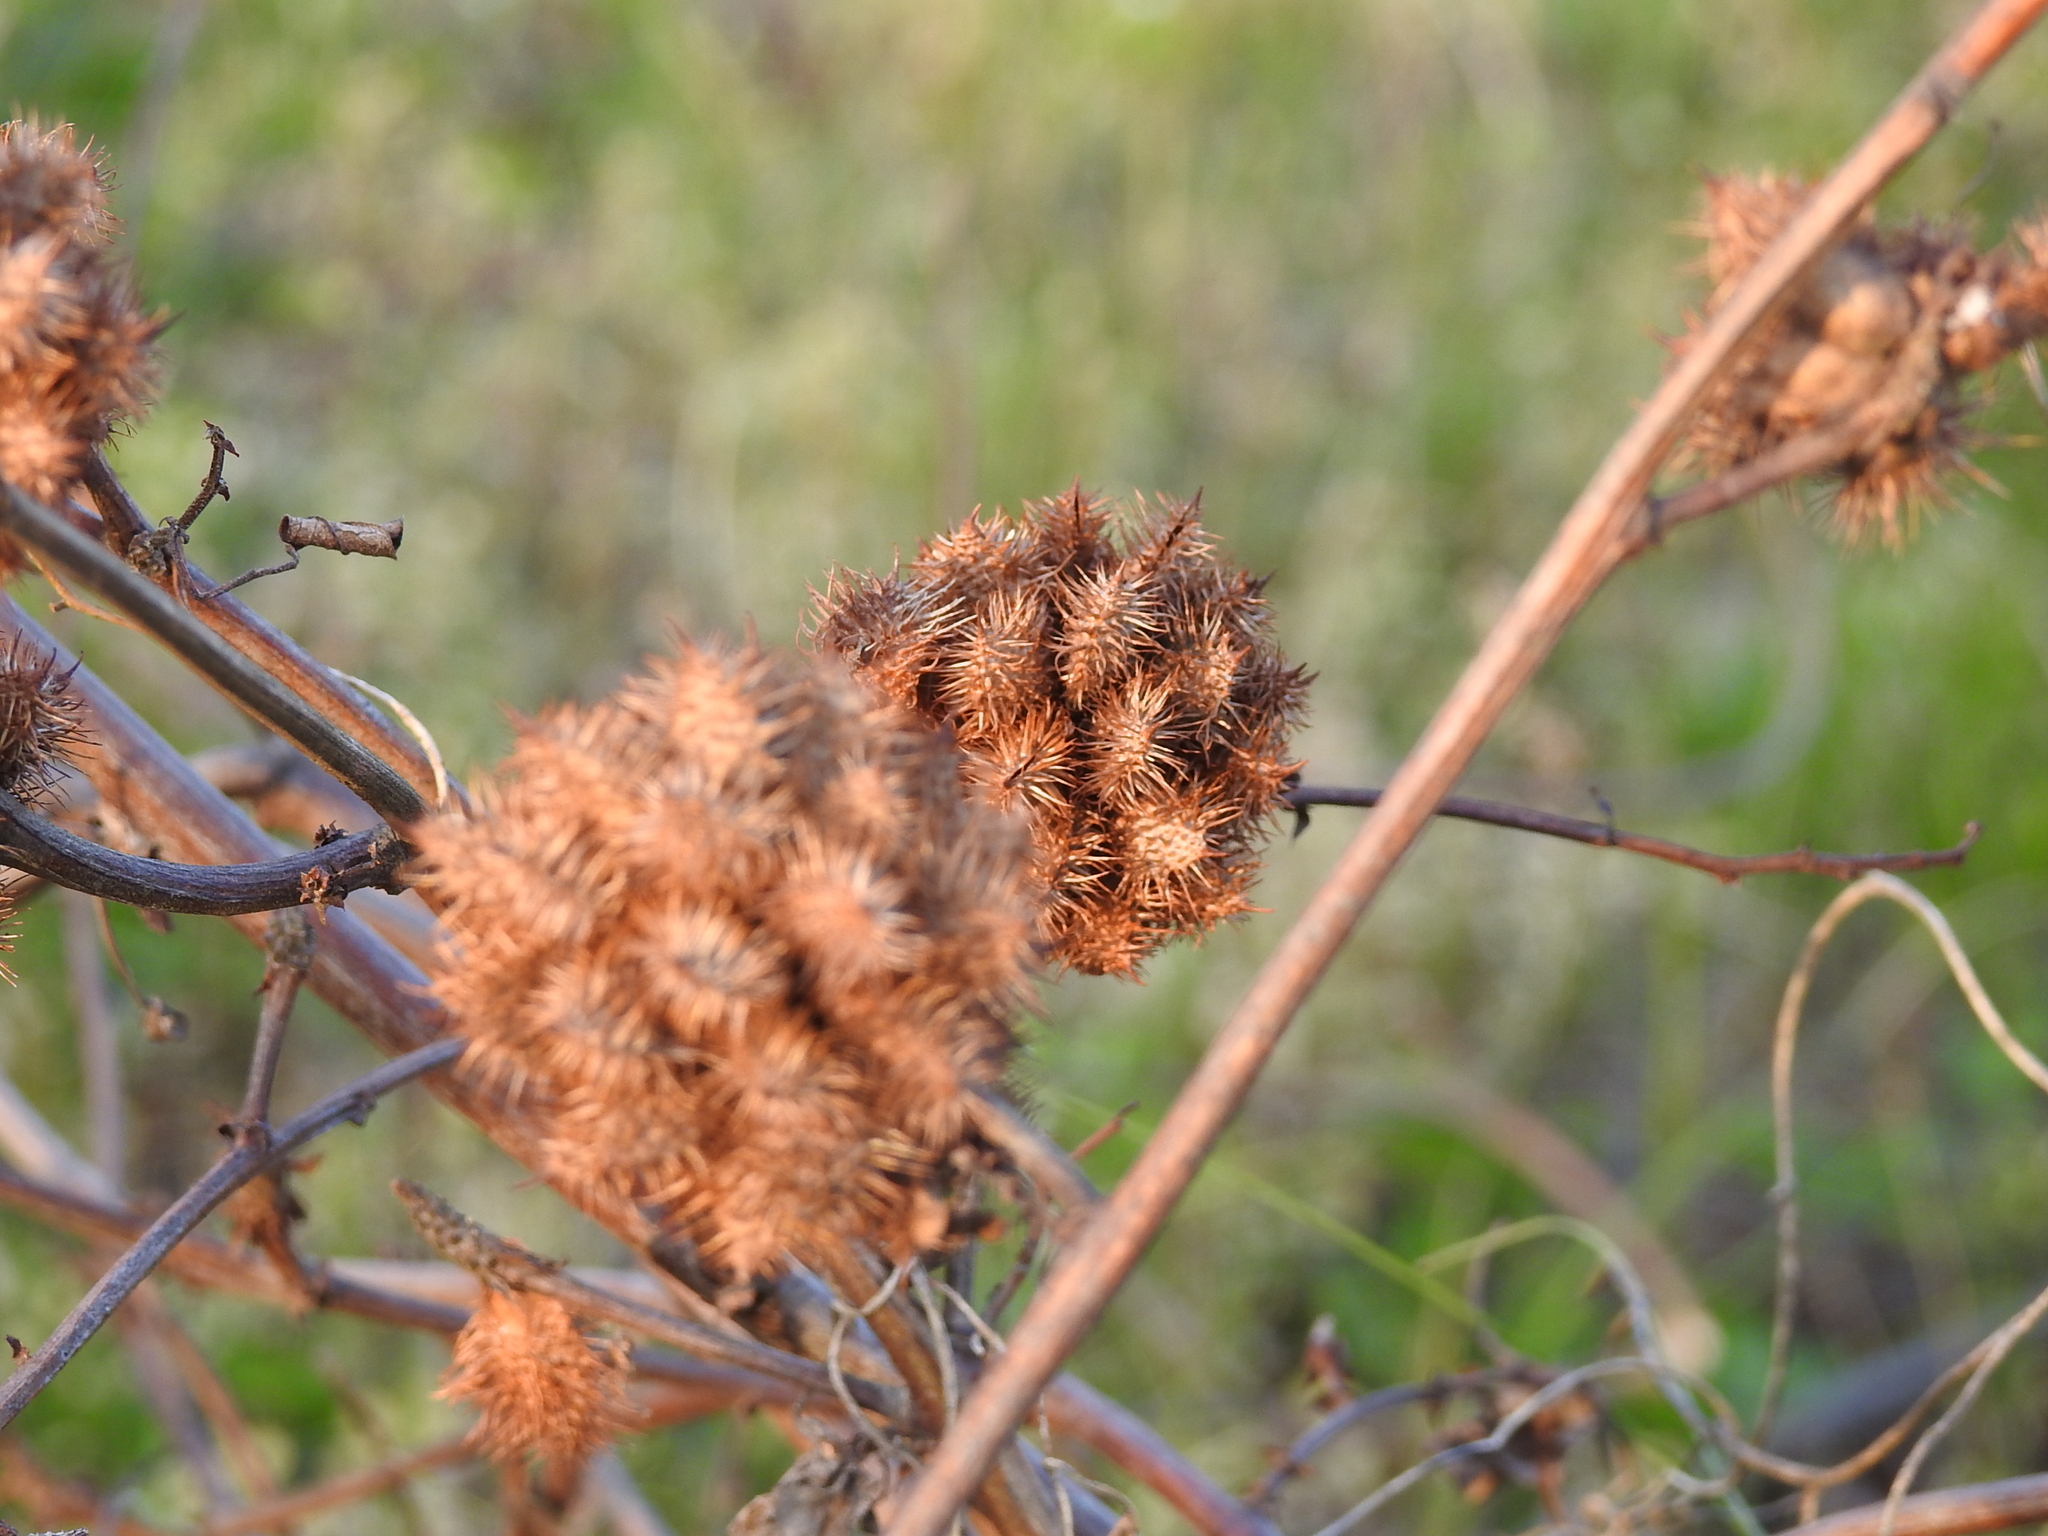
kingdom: Plantae
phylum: Tracheophyta
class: Magnoliopsida
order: Fabales
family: Fabaceae
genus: Glycyrrhiza
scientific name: Glycyrrhiza echinata
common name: German liquorice
